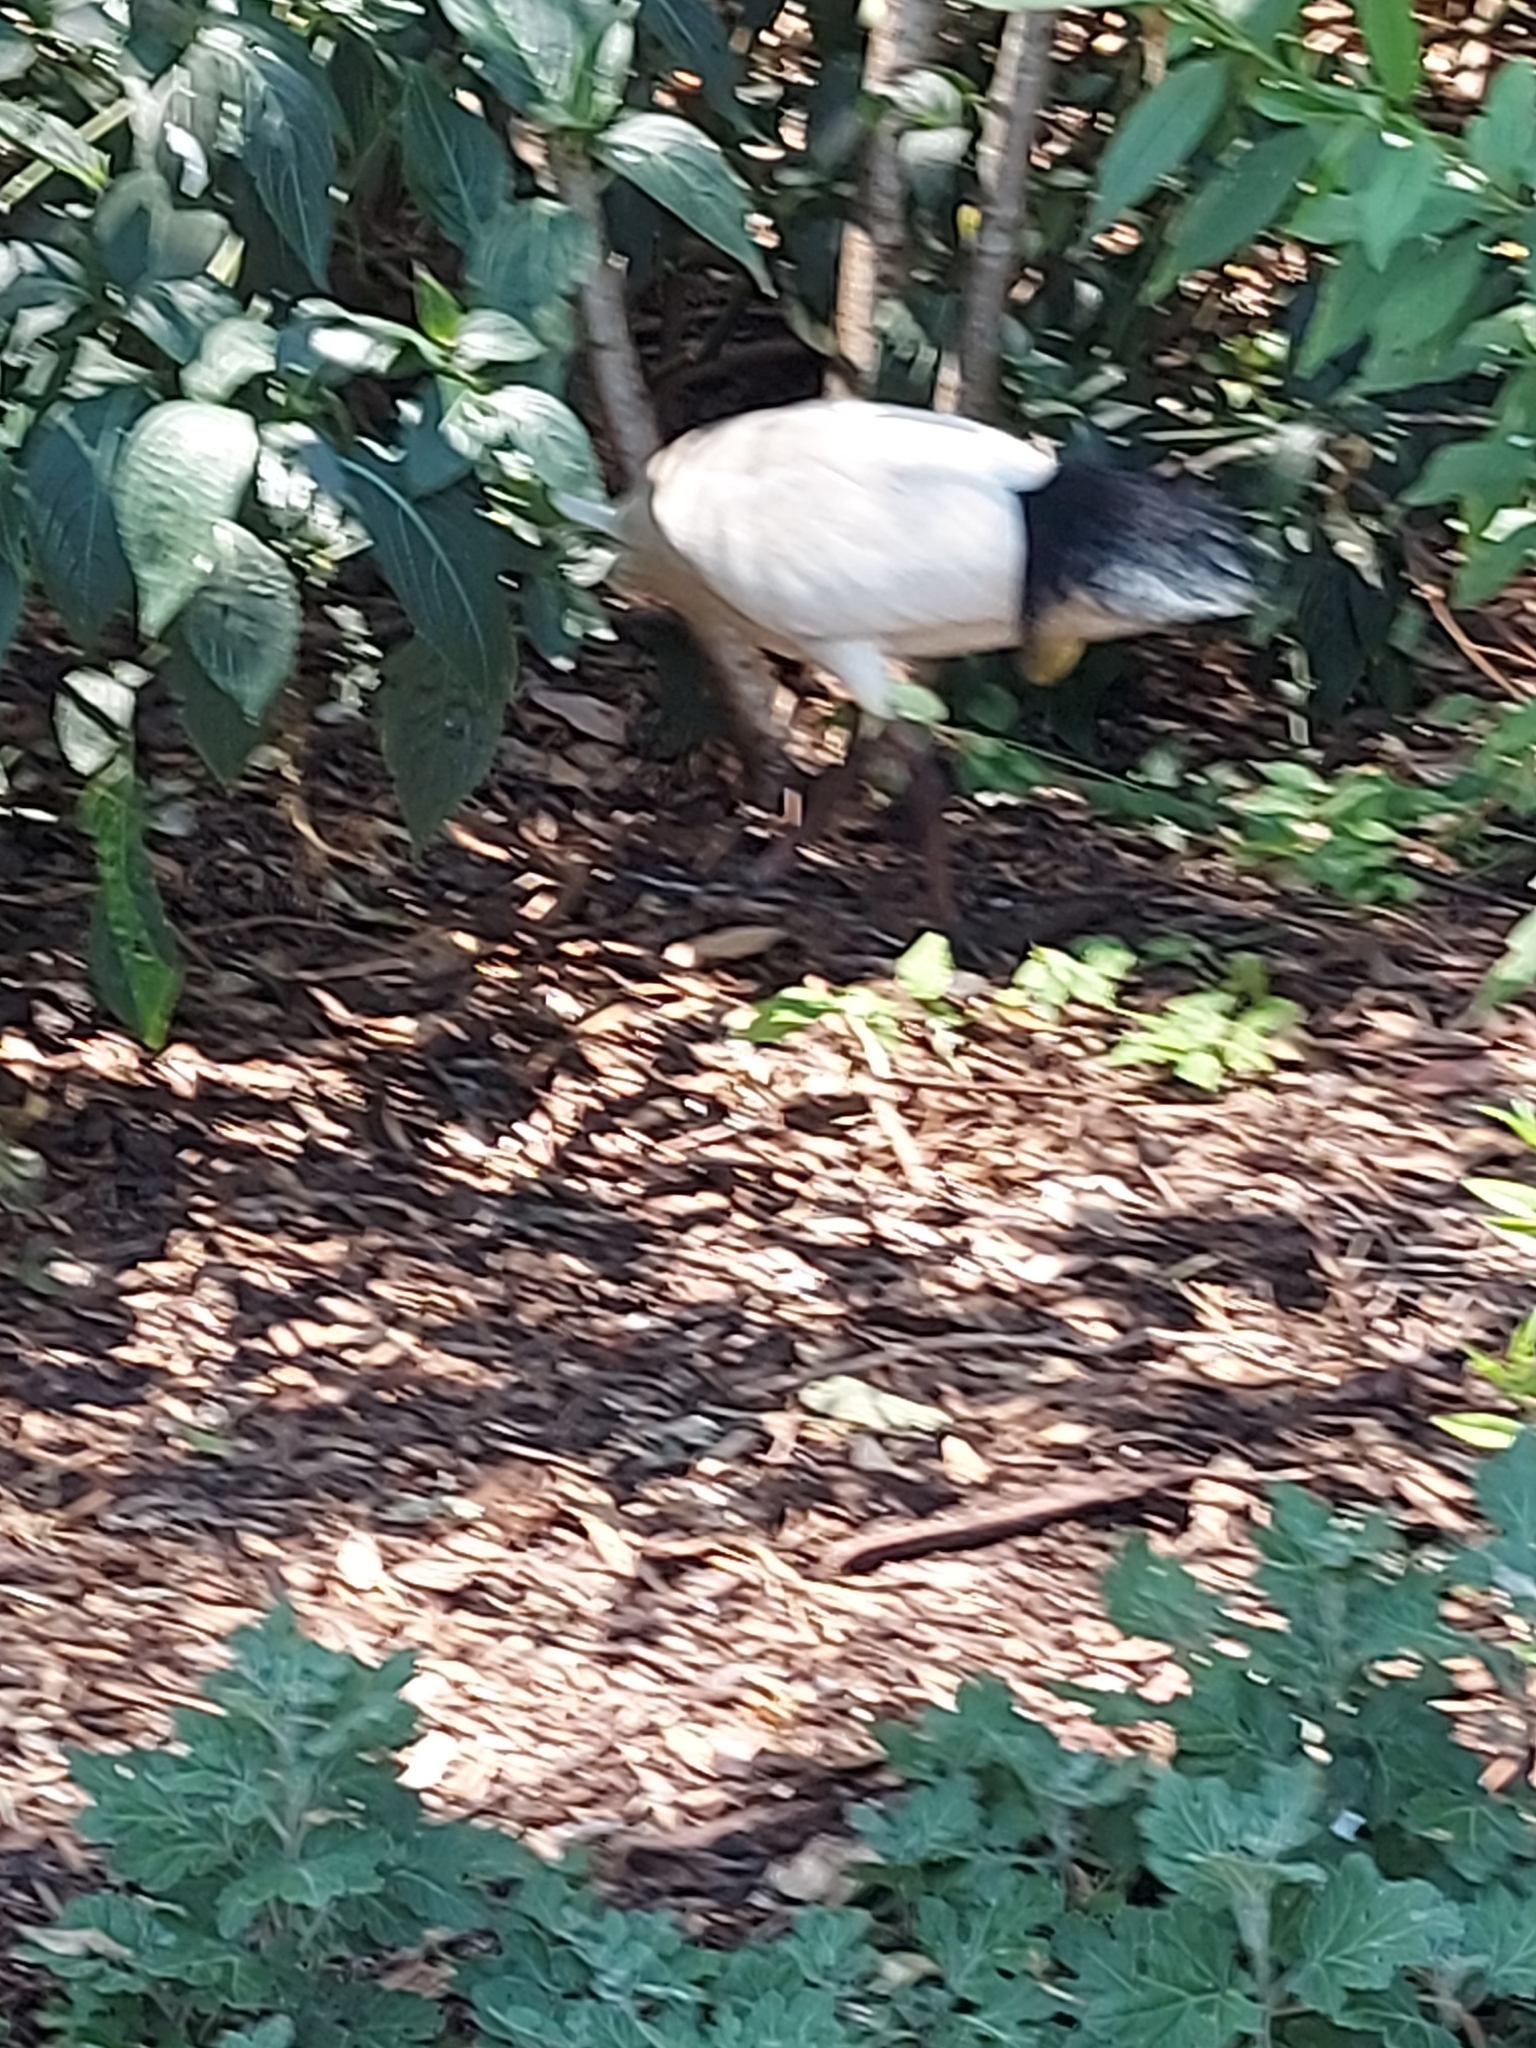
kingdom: Animalia
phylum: Chordata
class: Aves
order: Pelecaniformes
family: Threskiornithidae
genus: Threskiornis
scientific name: Threskiornis molucca
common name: Australian white ibis
